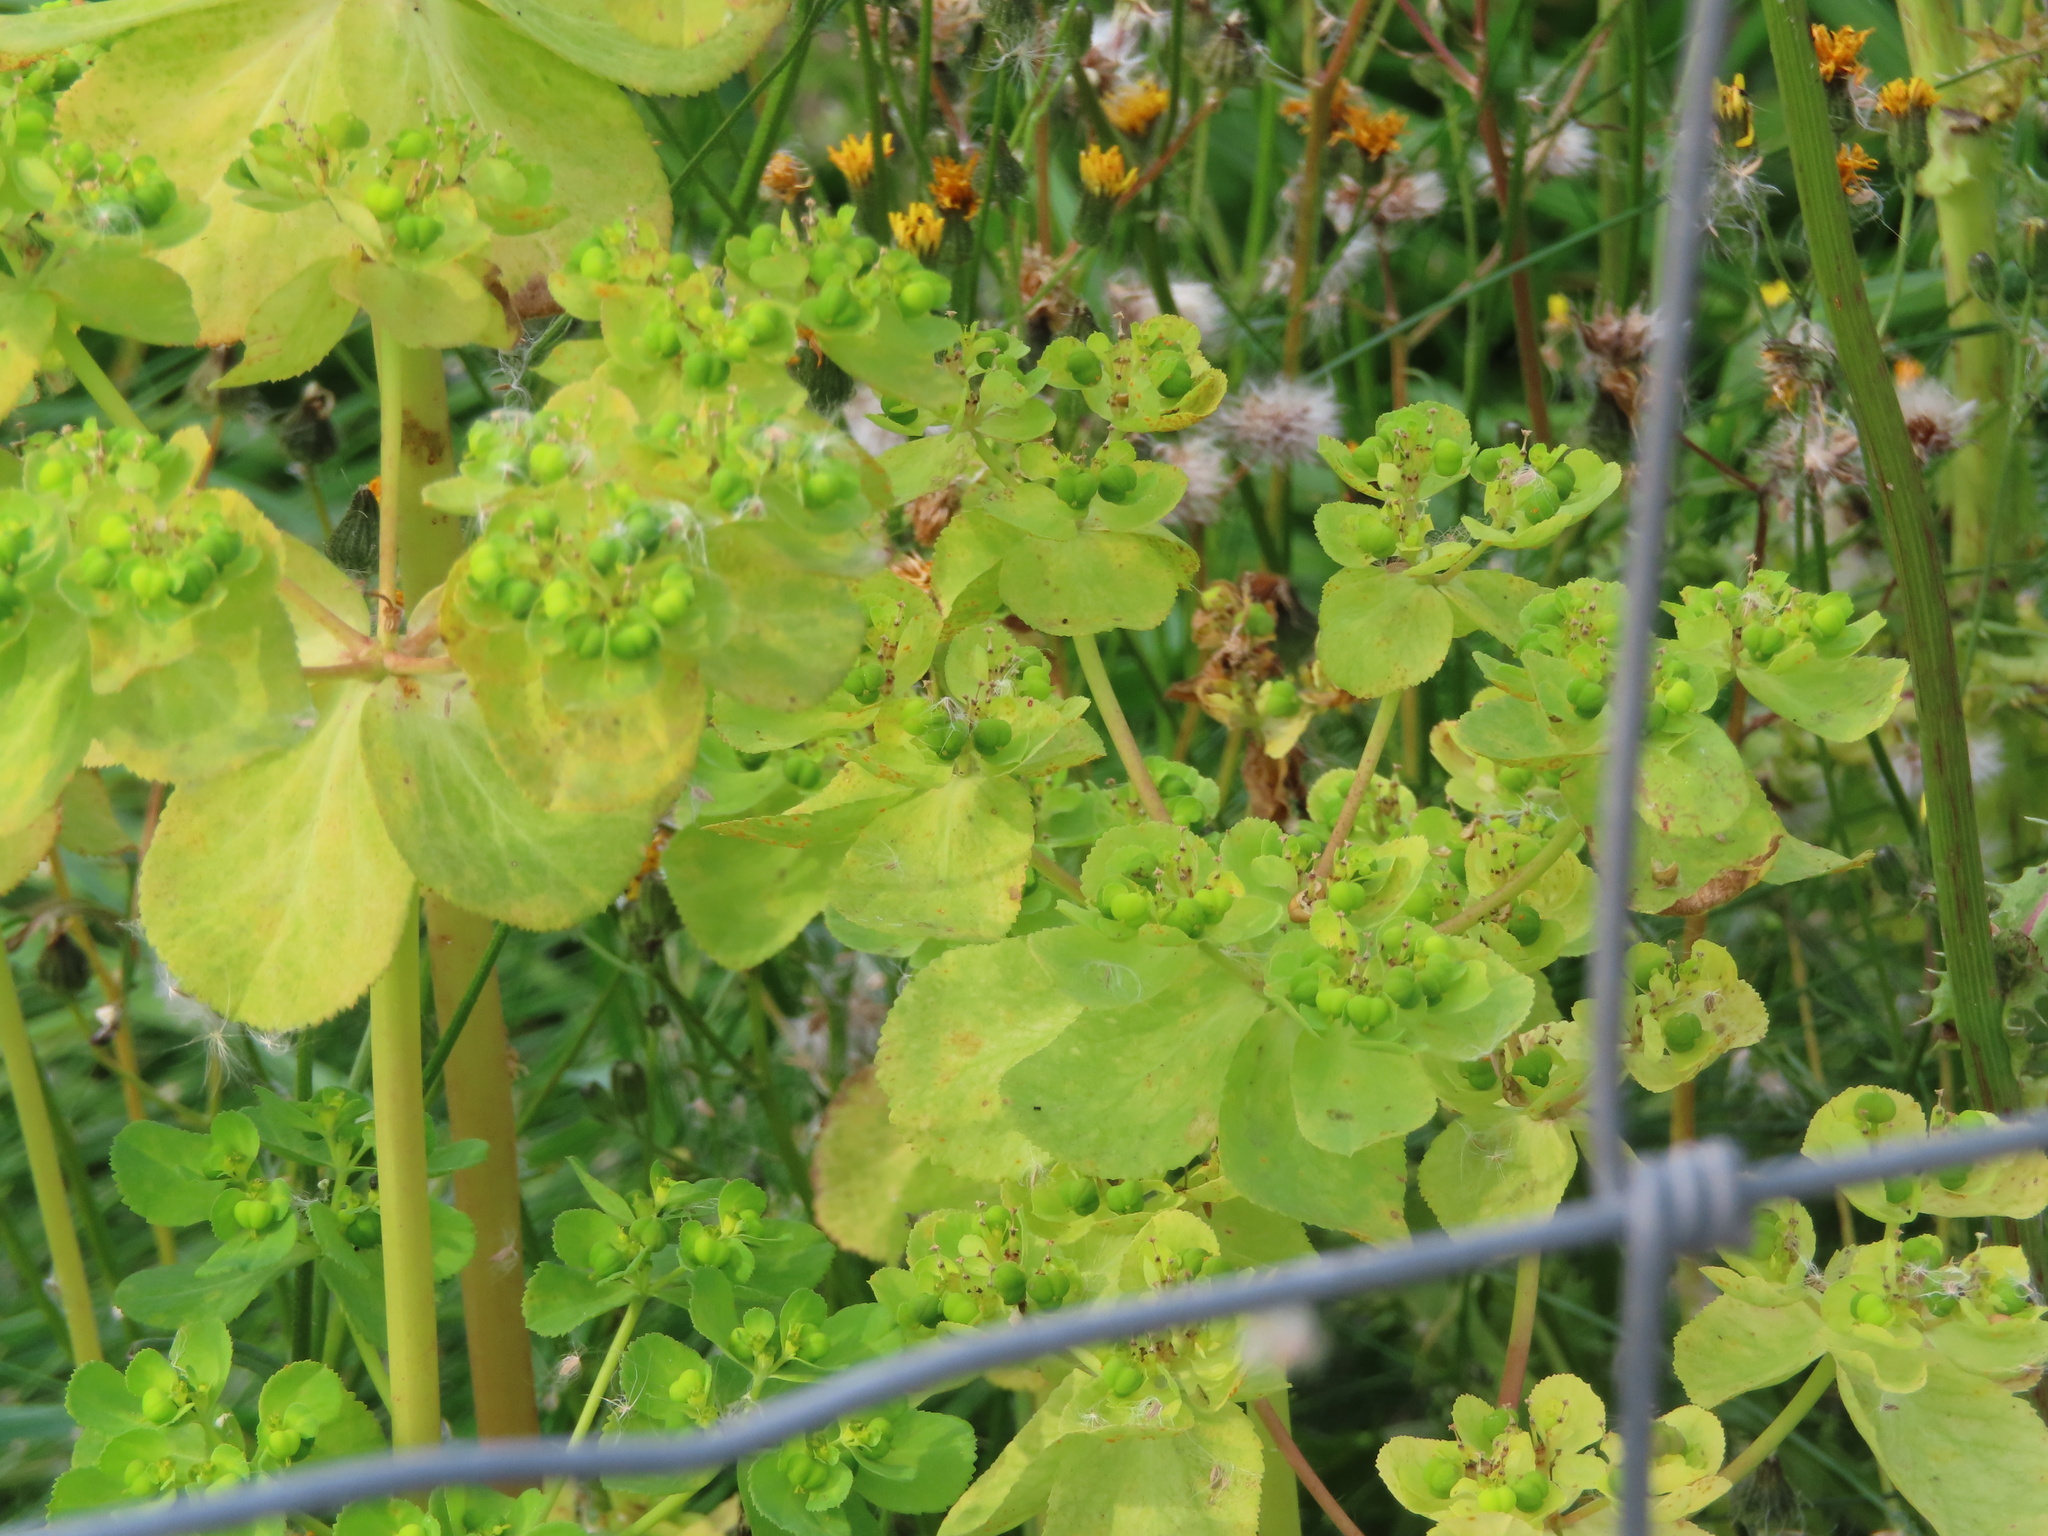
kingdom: Plantae
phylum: Tracheophyta
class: Magnoliopsida
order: Malpighiales
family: Euphorbiaceae
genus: Euphorbia
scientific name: Euphorbia helioscopia
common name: Sun spurge
